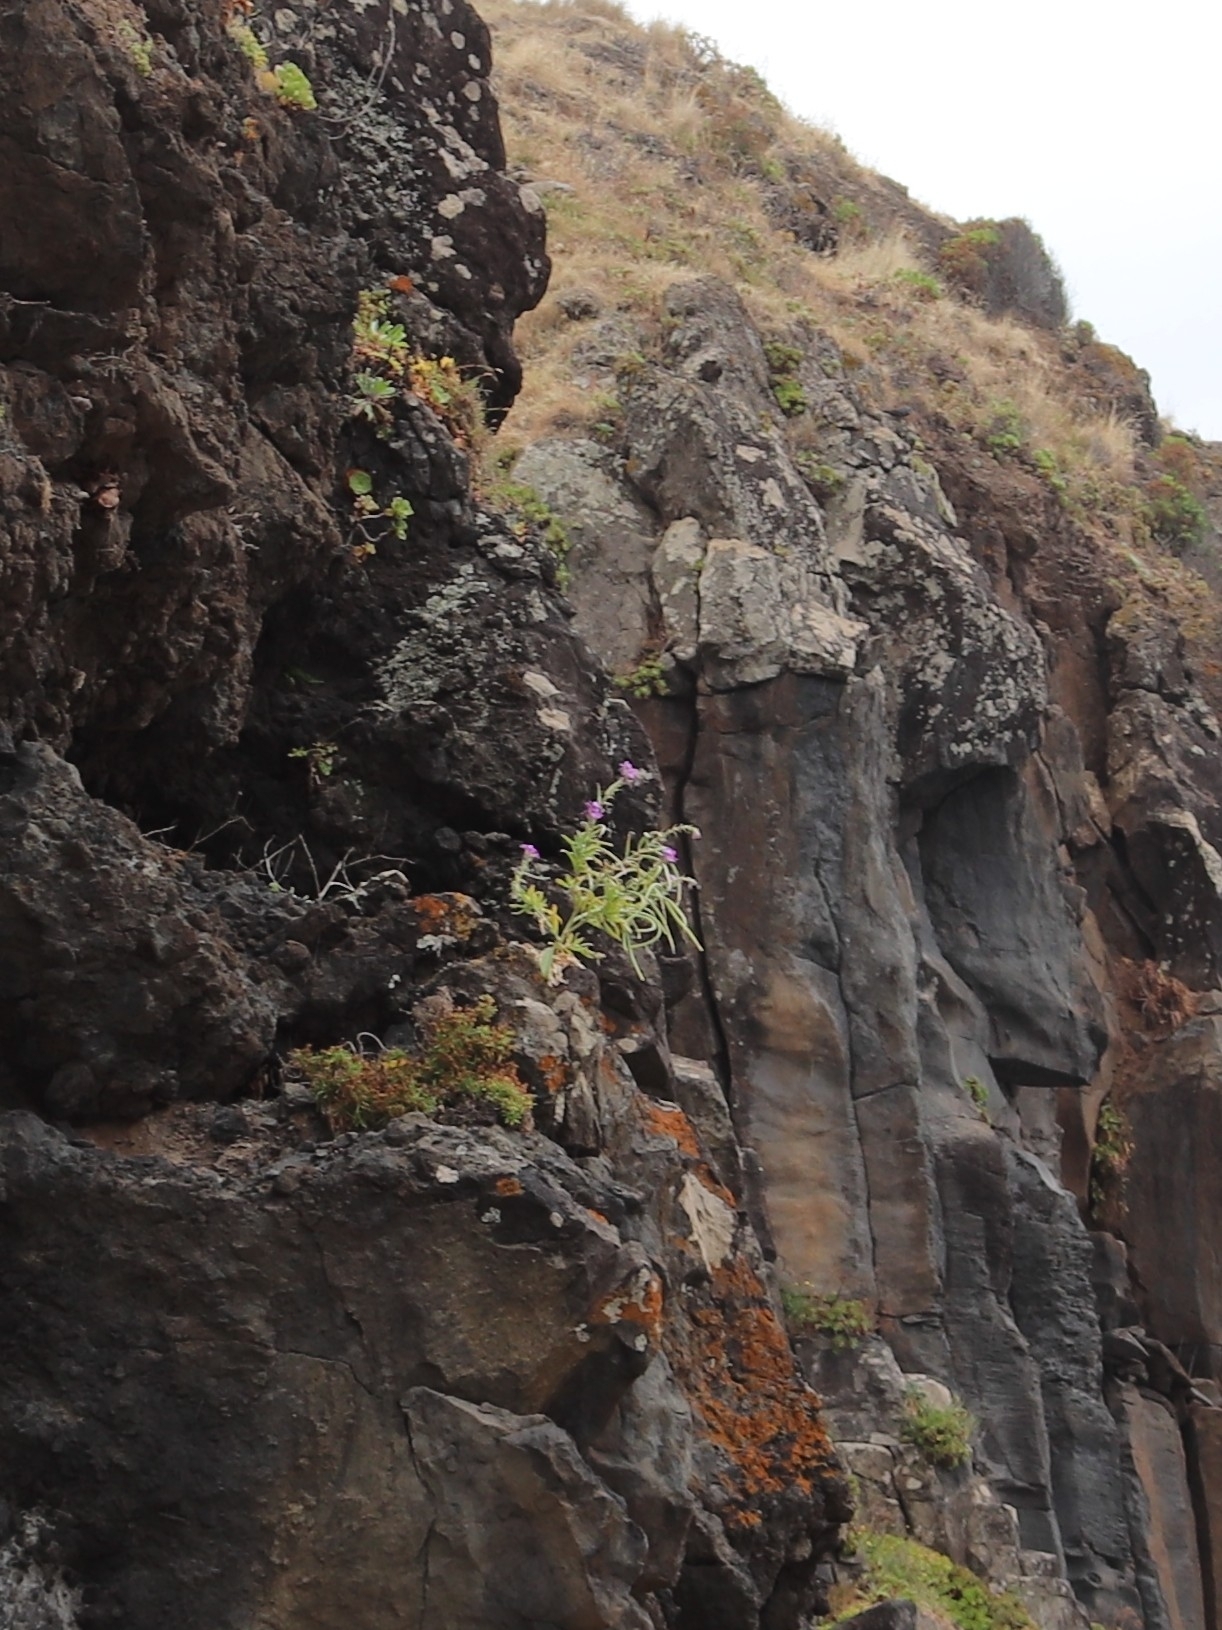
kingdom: Plantae
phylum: Tracheophyta
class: Magnoliopsida
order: Brassicales
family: Brassicaceae
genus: Matthiola
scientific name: Matthiola maderensis
